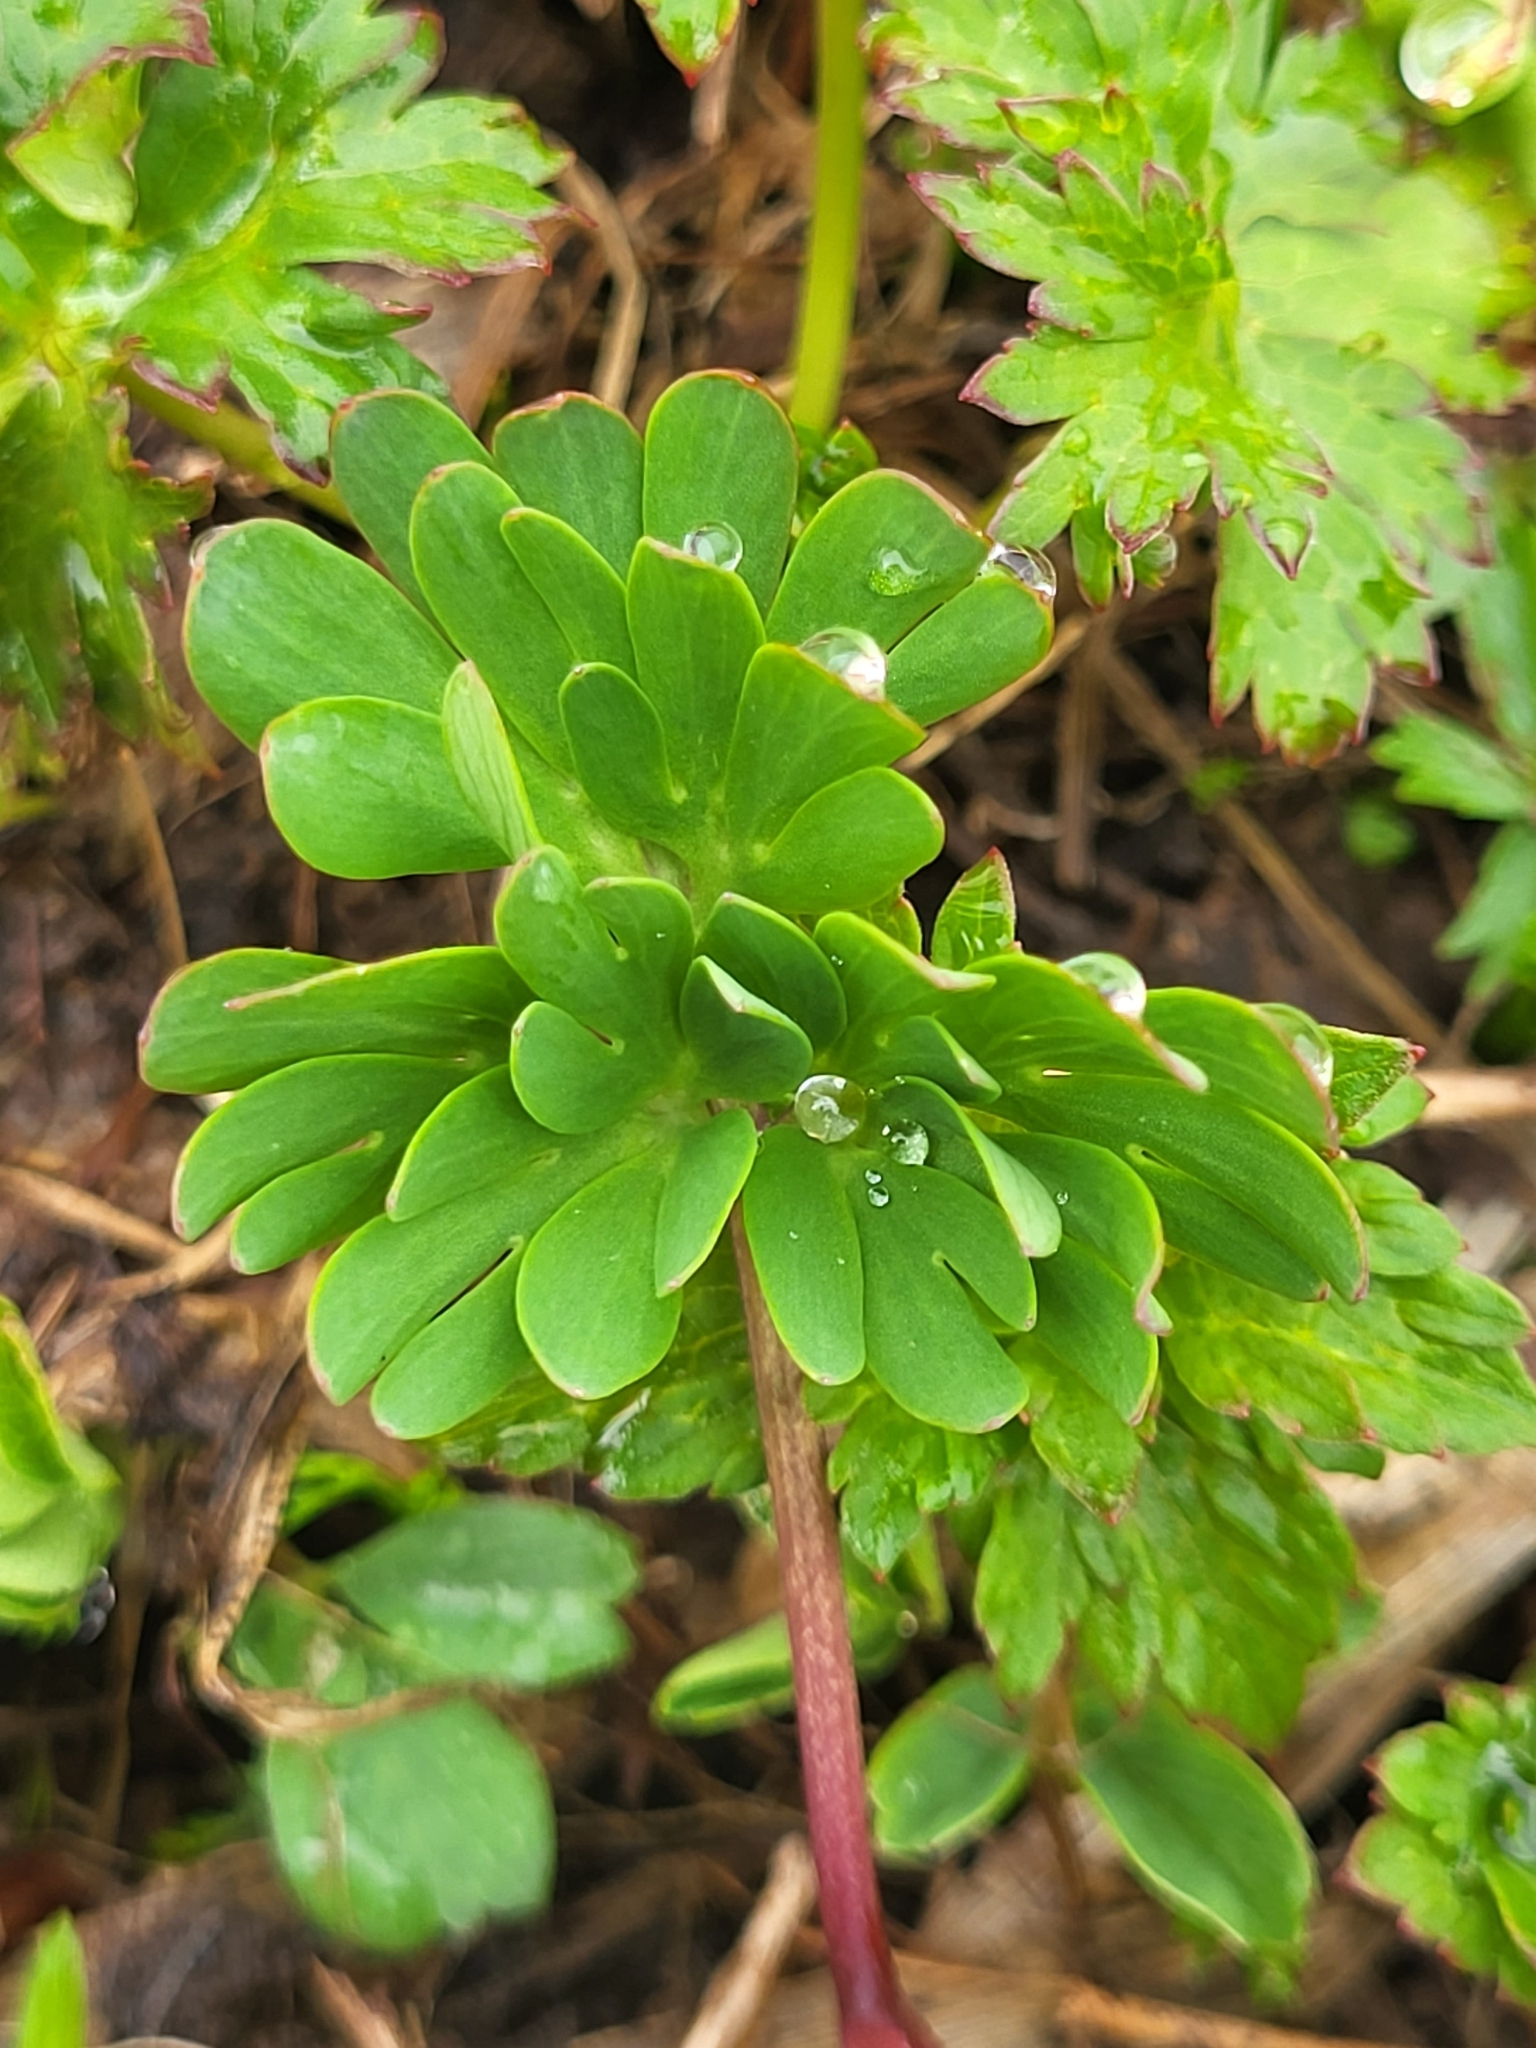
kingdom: Plantae
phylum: Tracheophyta
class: Magnoliopsida
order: Ranunculales
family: Papaveraceae
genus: Corydalis
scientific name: Corydalis conorhiza
